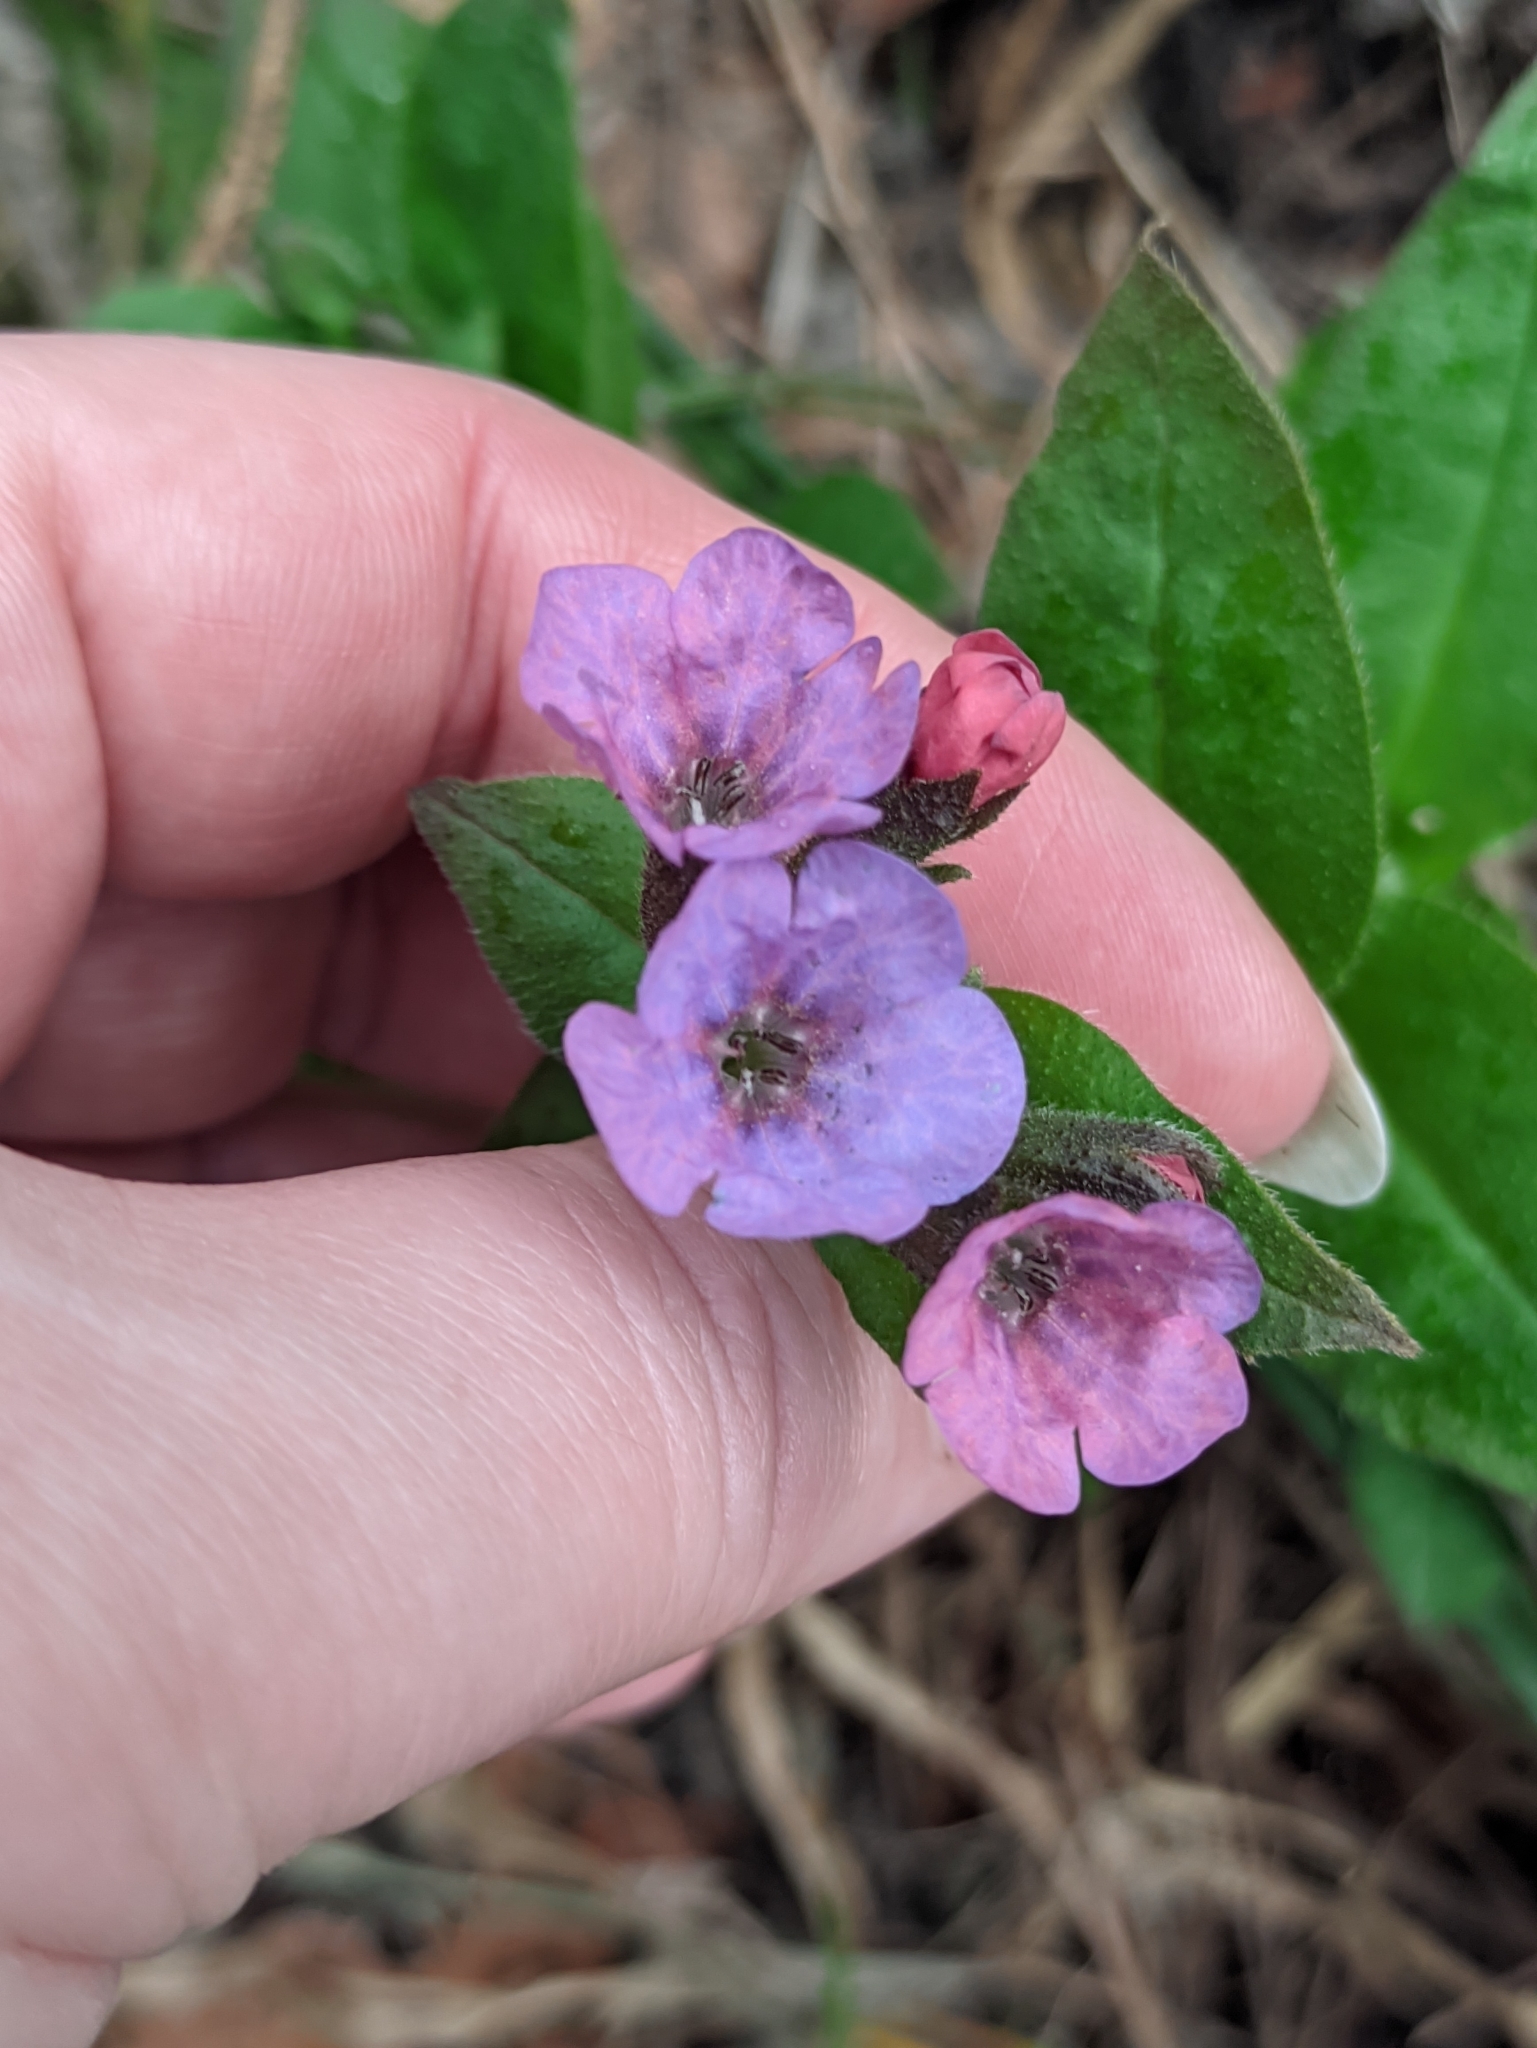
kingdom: Plantae
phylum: Tracheophyta
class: Magnoliopsida
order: Boraginales
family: Boraginaceae
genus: Pulmonaria
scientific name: Pulmonaria obscura
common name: Suffolk lungwort
